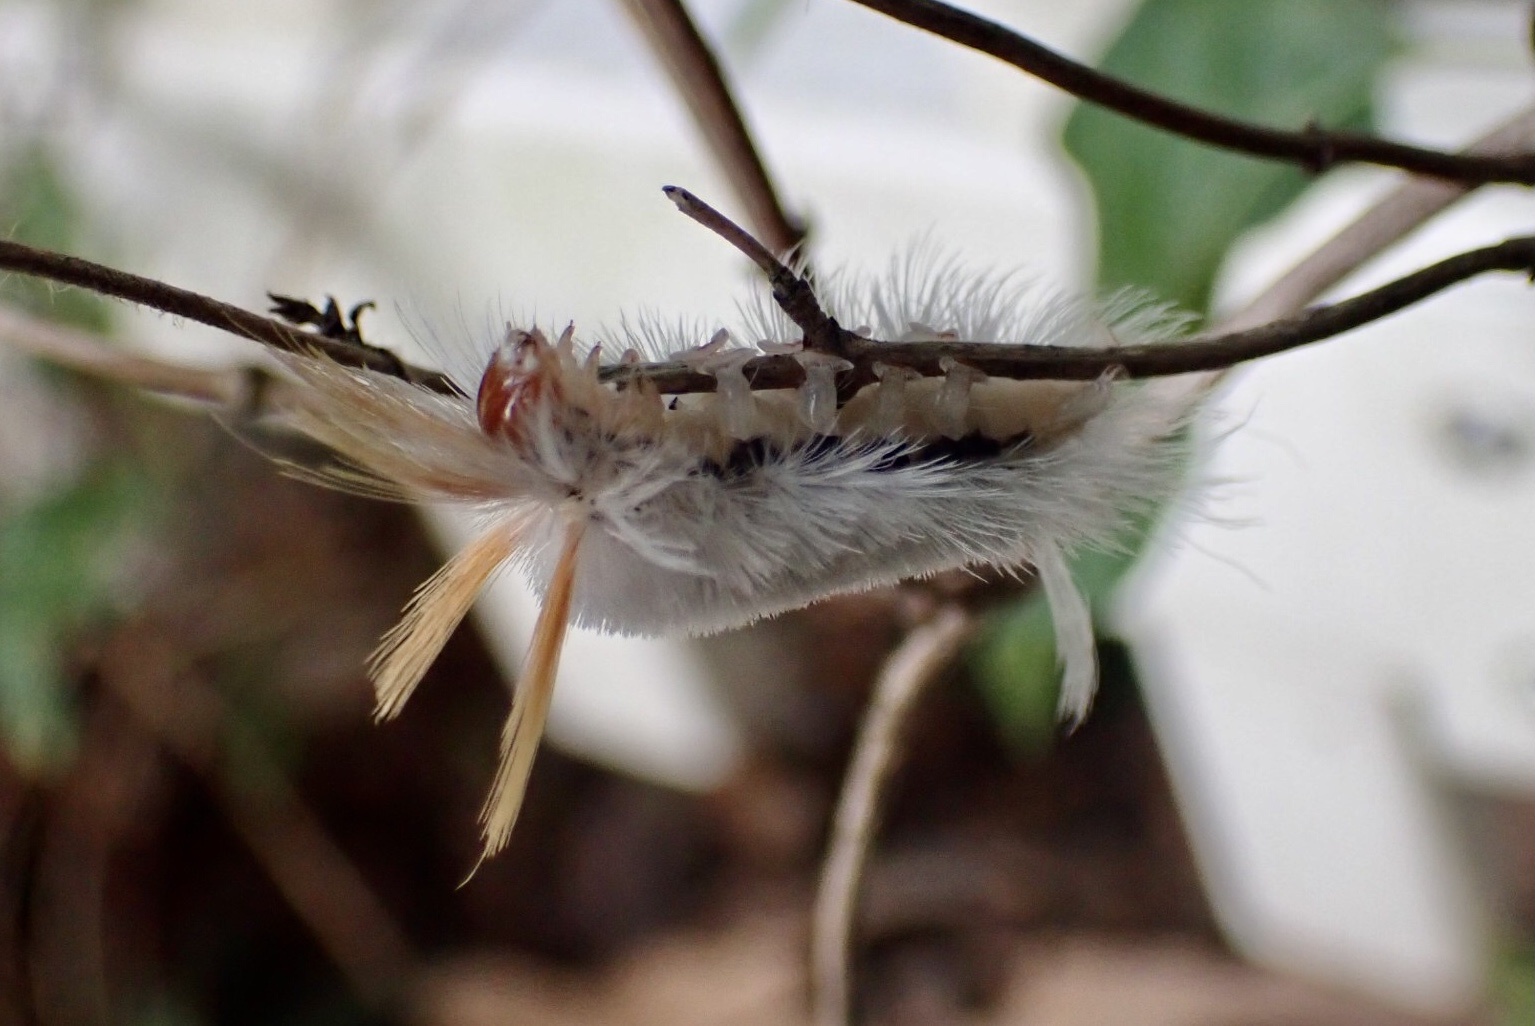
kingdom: Animalia
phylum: Arthropoda
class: Insecta
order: Lepidoptera
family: Erebidae
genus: Halysidota
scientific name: Halysidota harrisii
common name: Sycamore tussock moth
